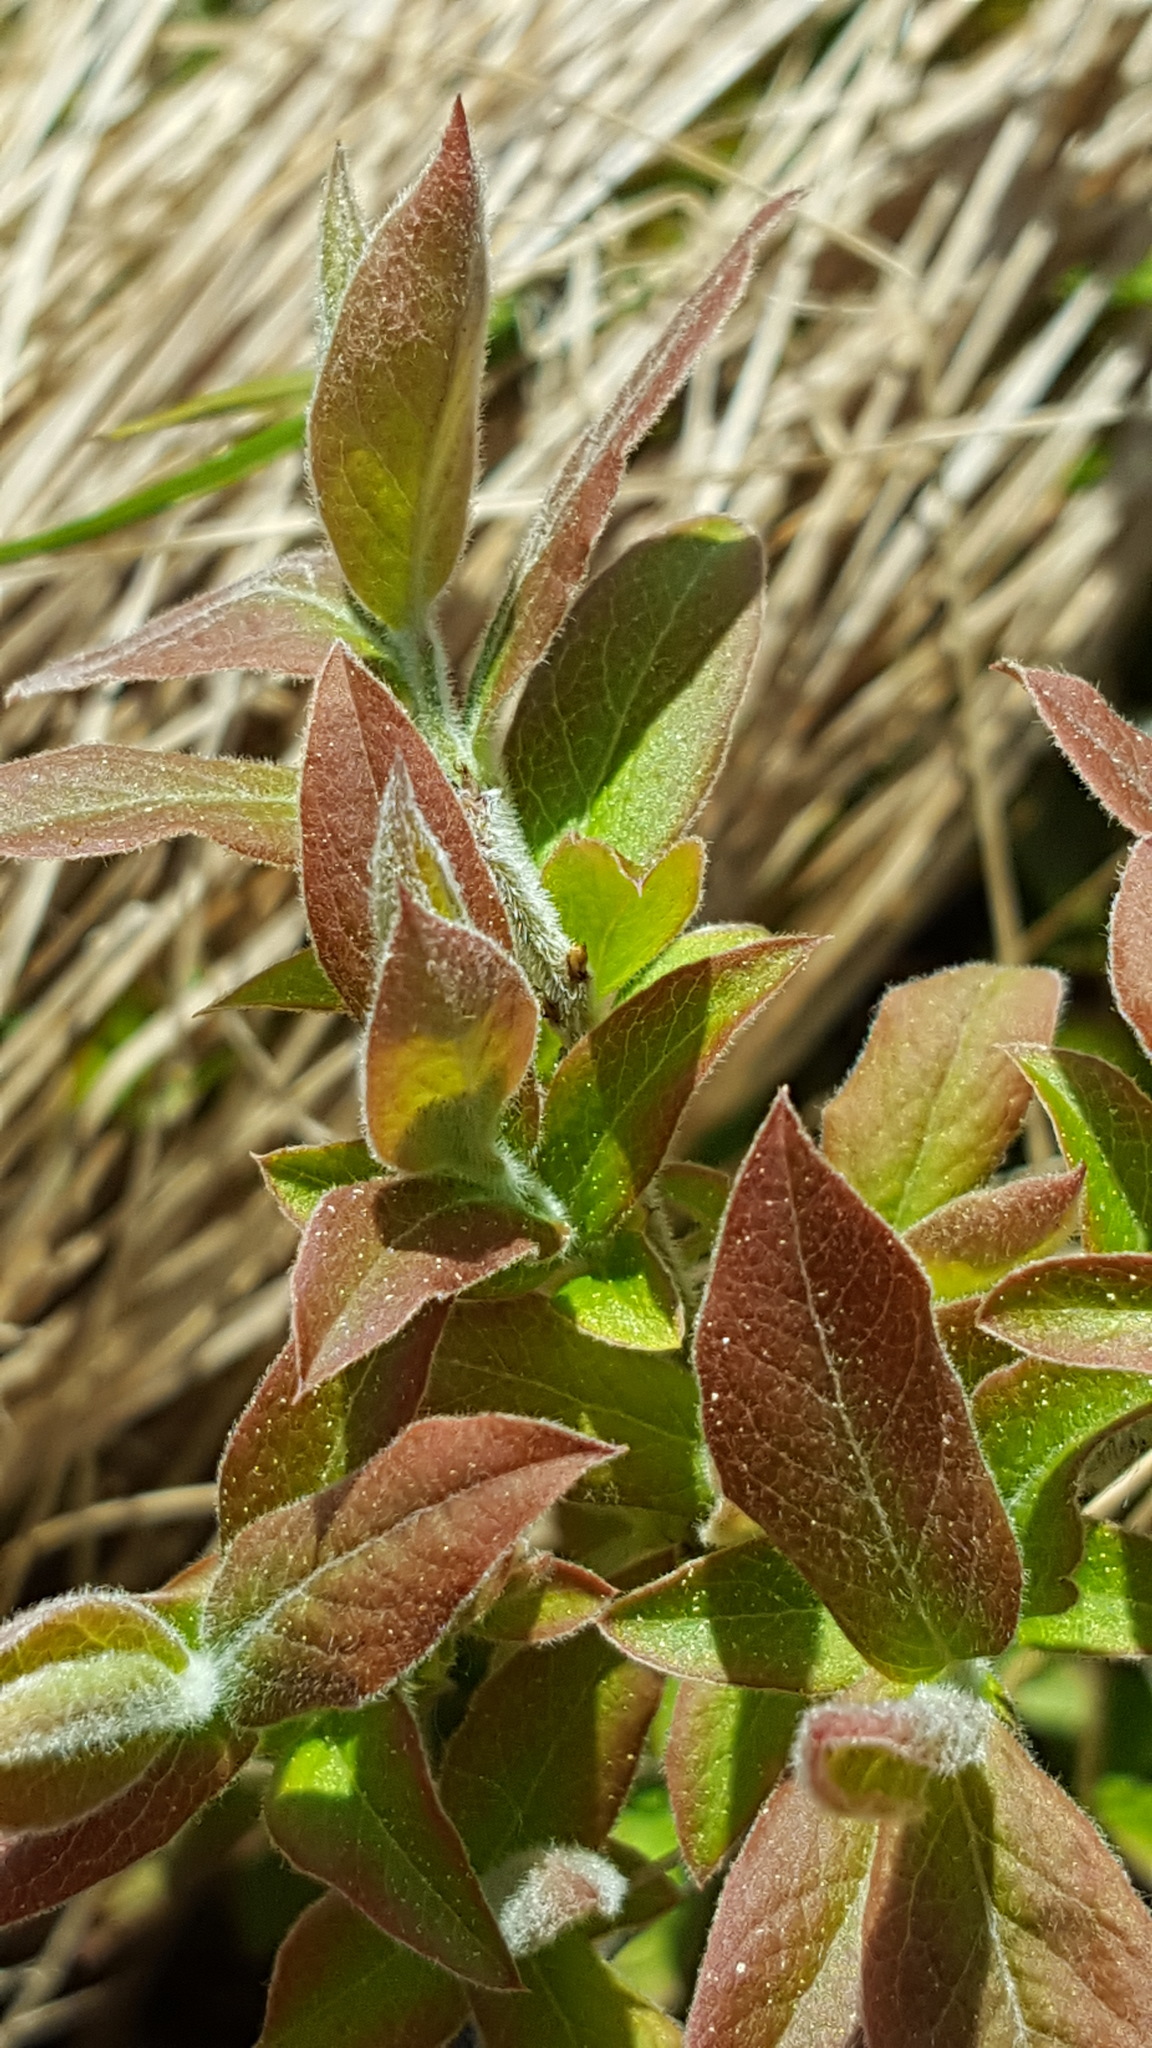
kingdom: Plantae
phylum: Tracheophyta
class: Magnoliopsida
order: Ericales
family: Ericaceae
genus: Vaccinium
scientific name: Vaccinium myrtilloides
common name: Canada blueberry
